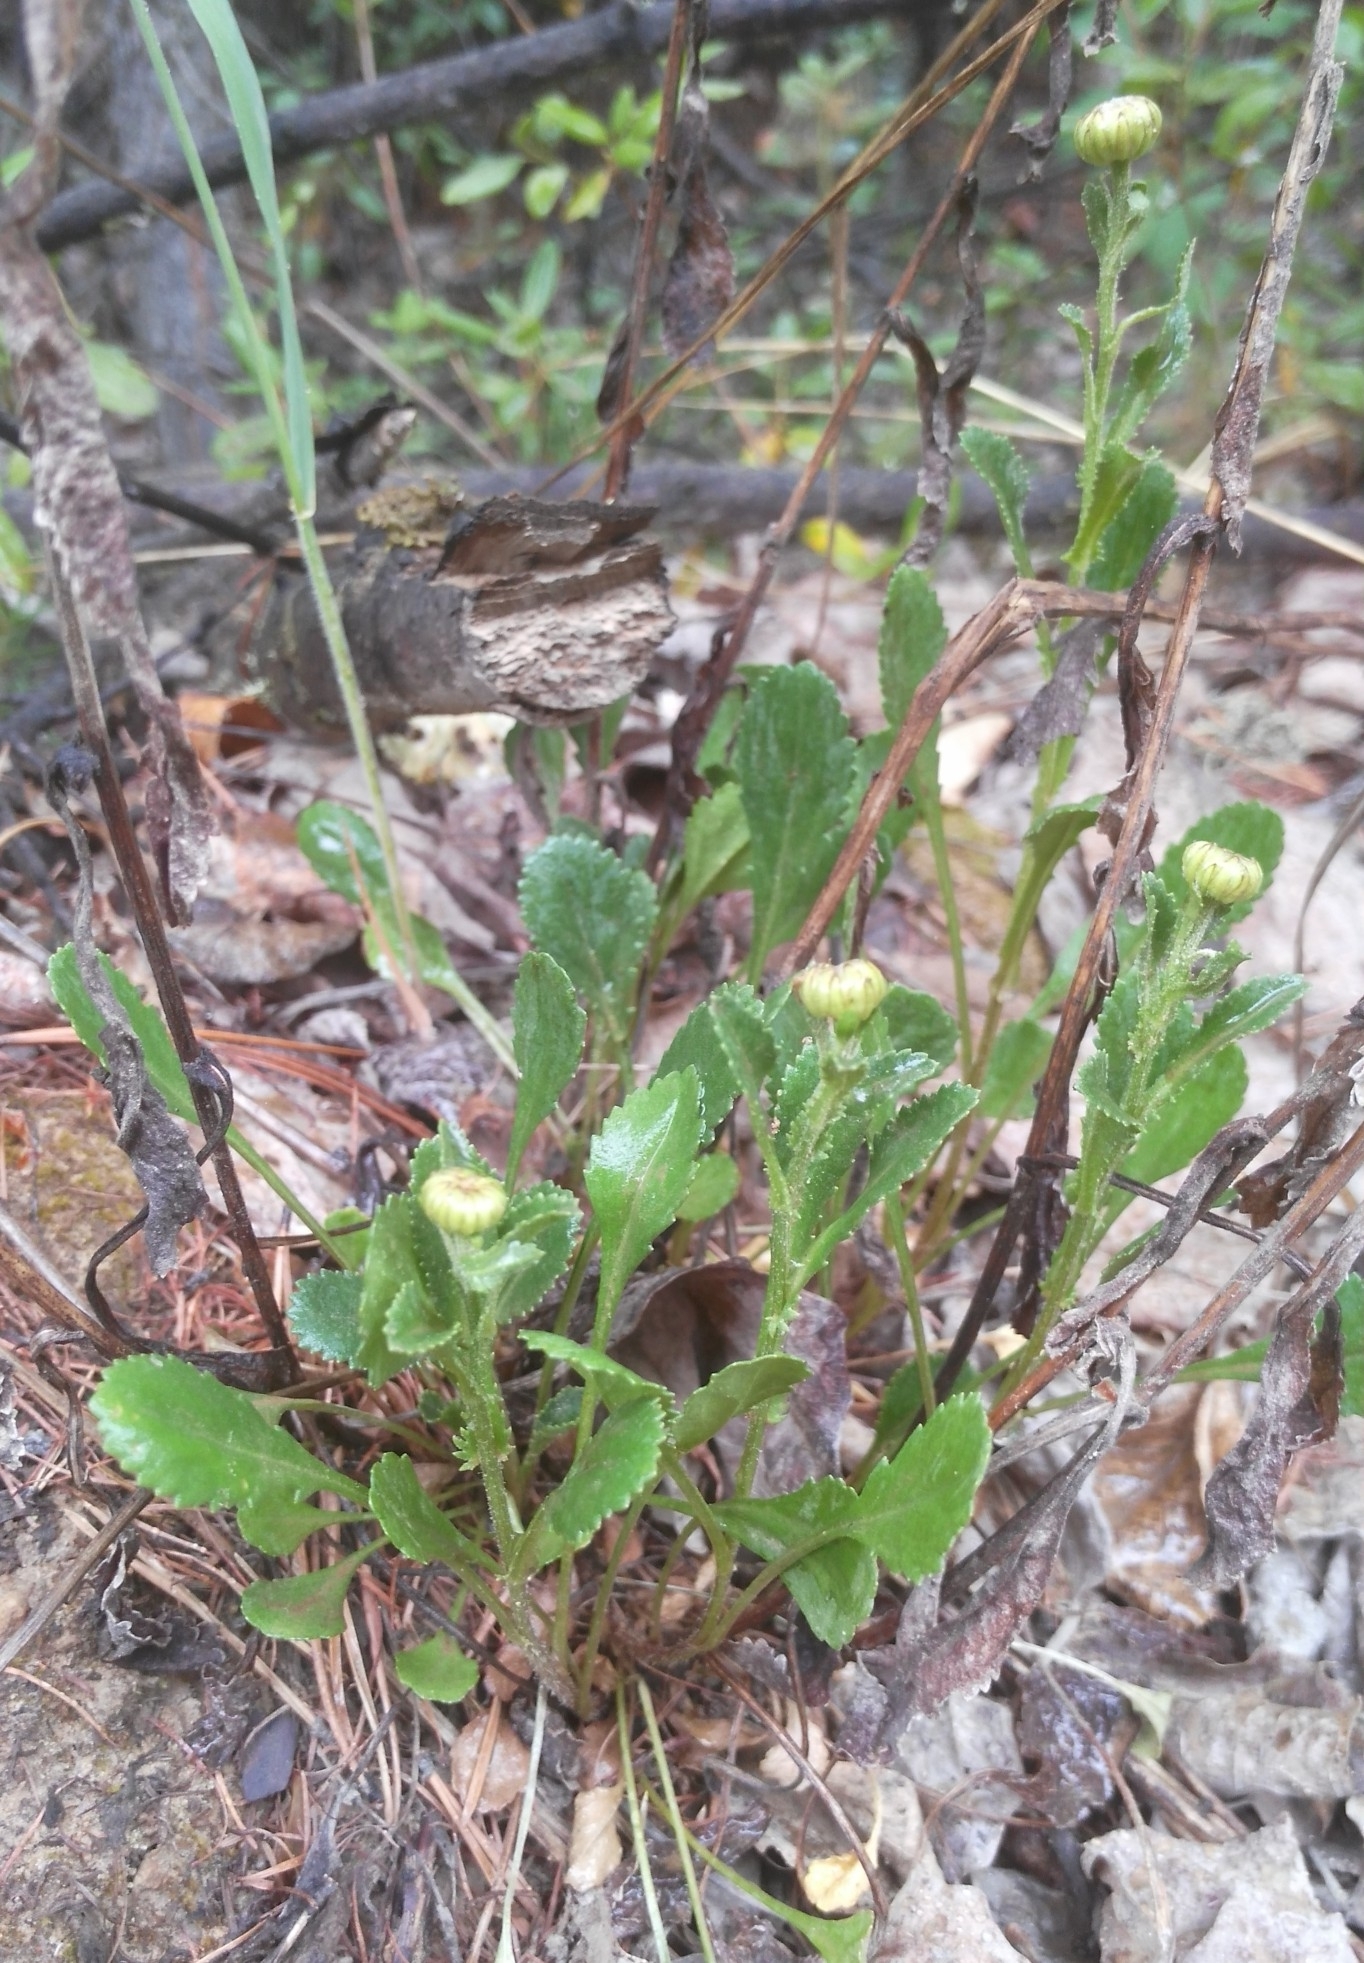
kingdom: Plantae
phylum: Tracheophyta
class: Magnoliopsida
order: Asterales
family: Asteraceae
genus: Leucanthemum
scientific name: Leucanthemum vulgare
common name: Oxeye daisy
